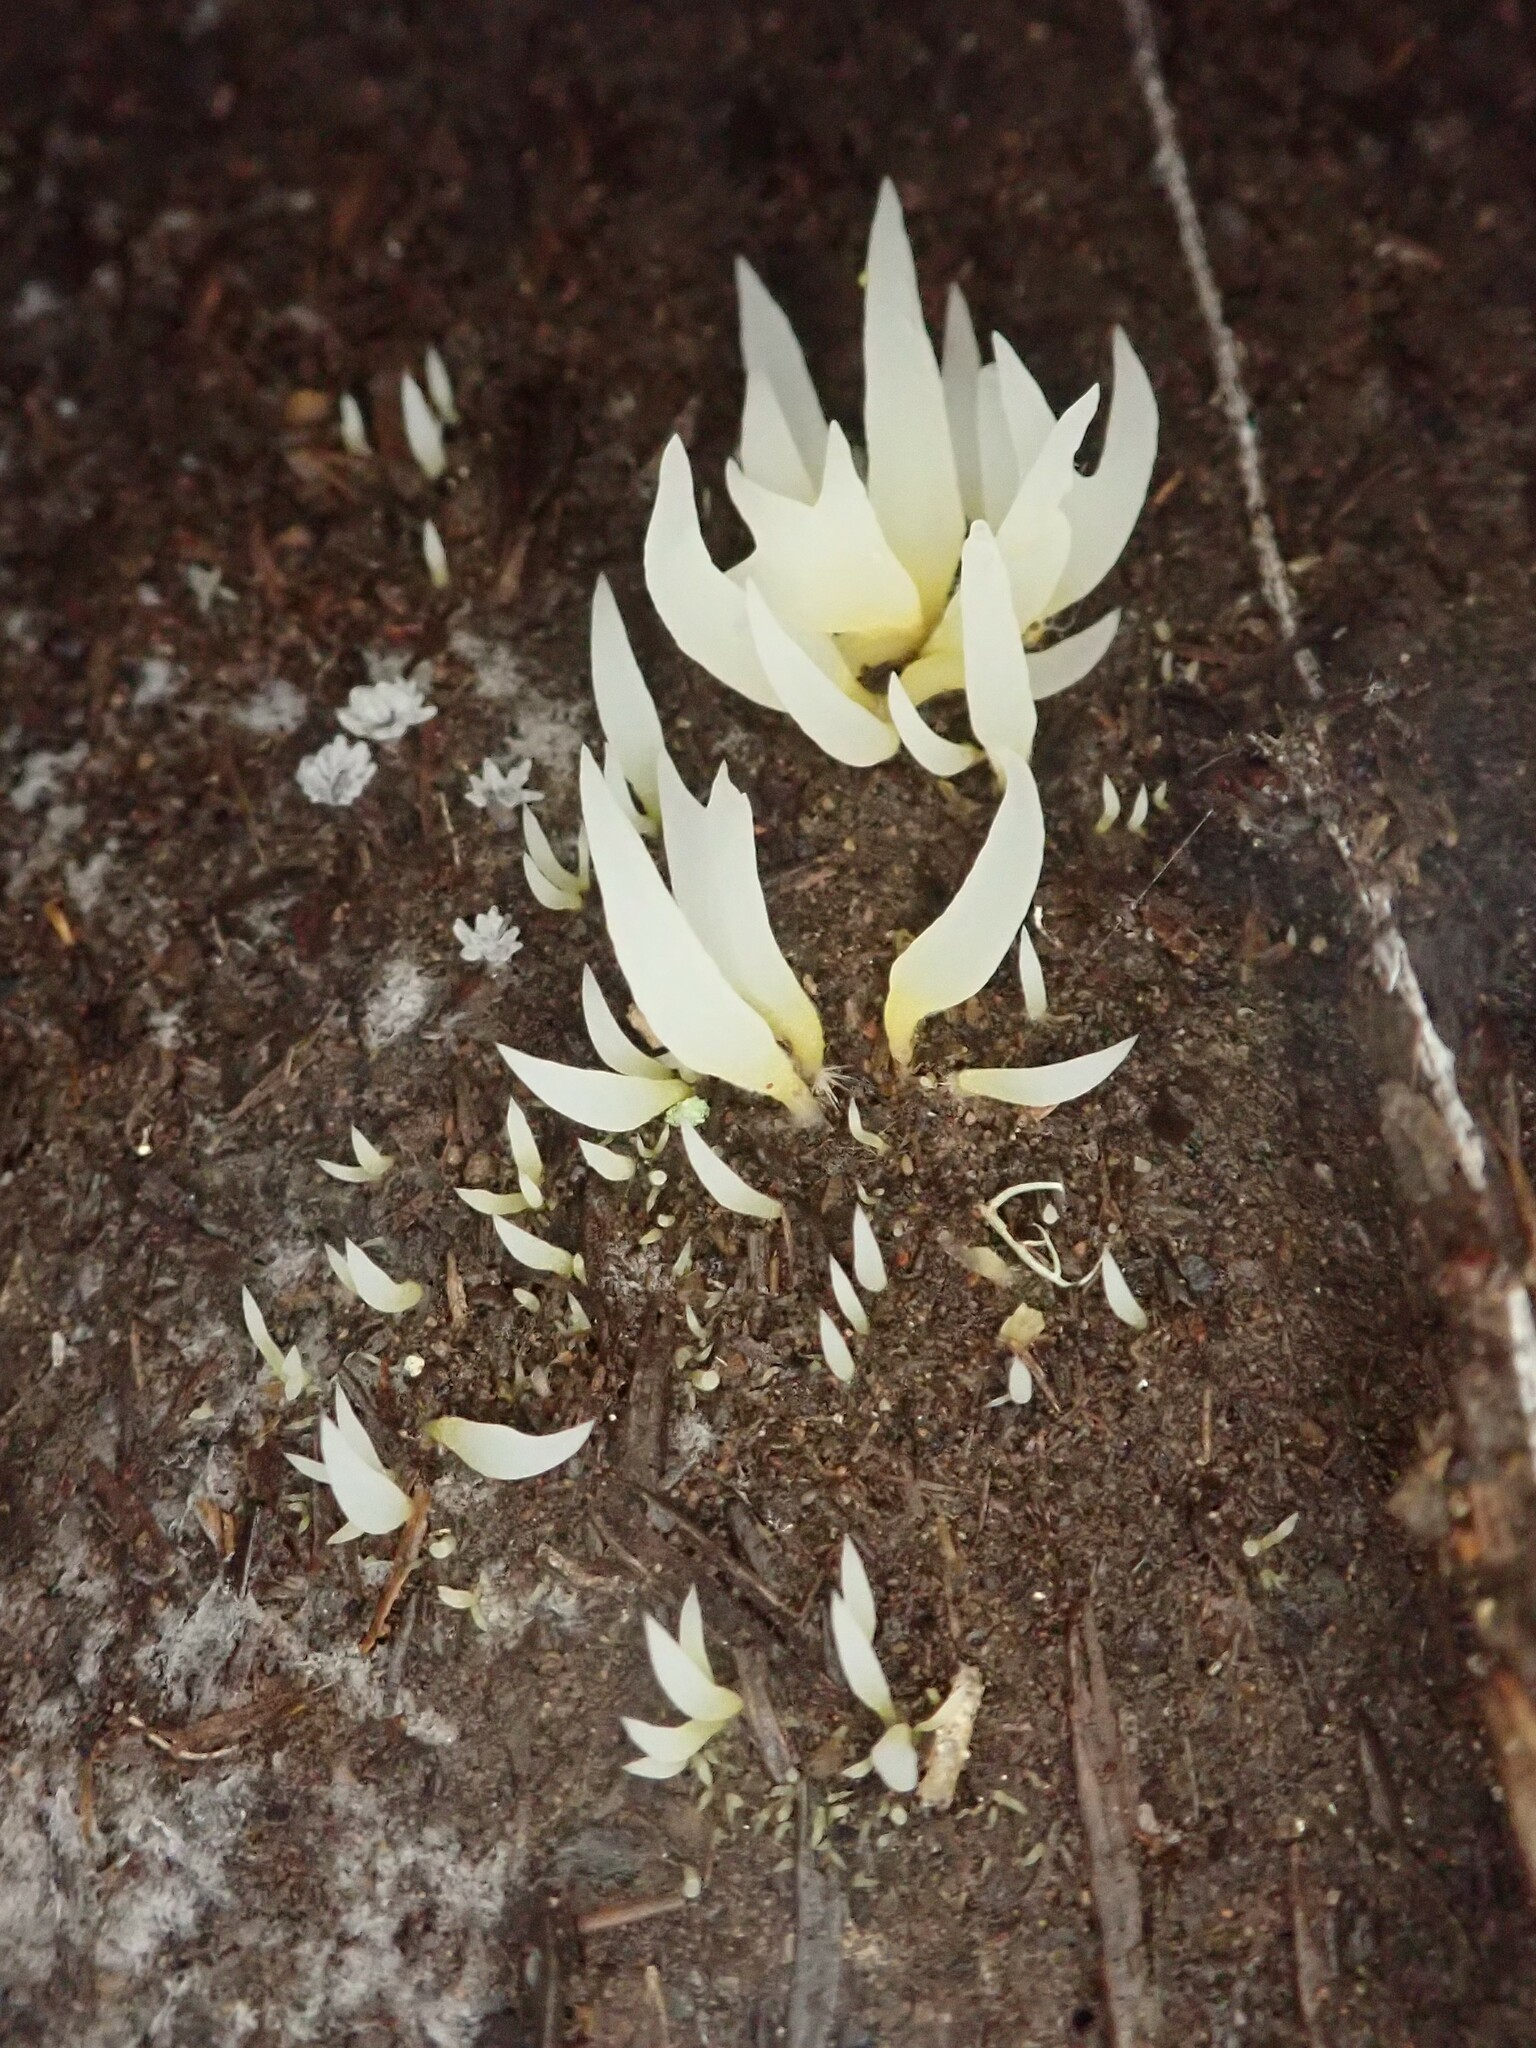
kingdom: Fungi
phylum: Basidiomycota
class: Agaricomycetes
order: Agaricales
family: Clavariaceae
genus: Mucronella
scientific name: Mucronella fusiformis
